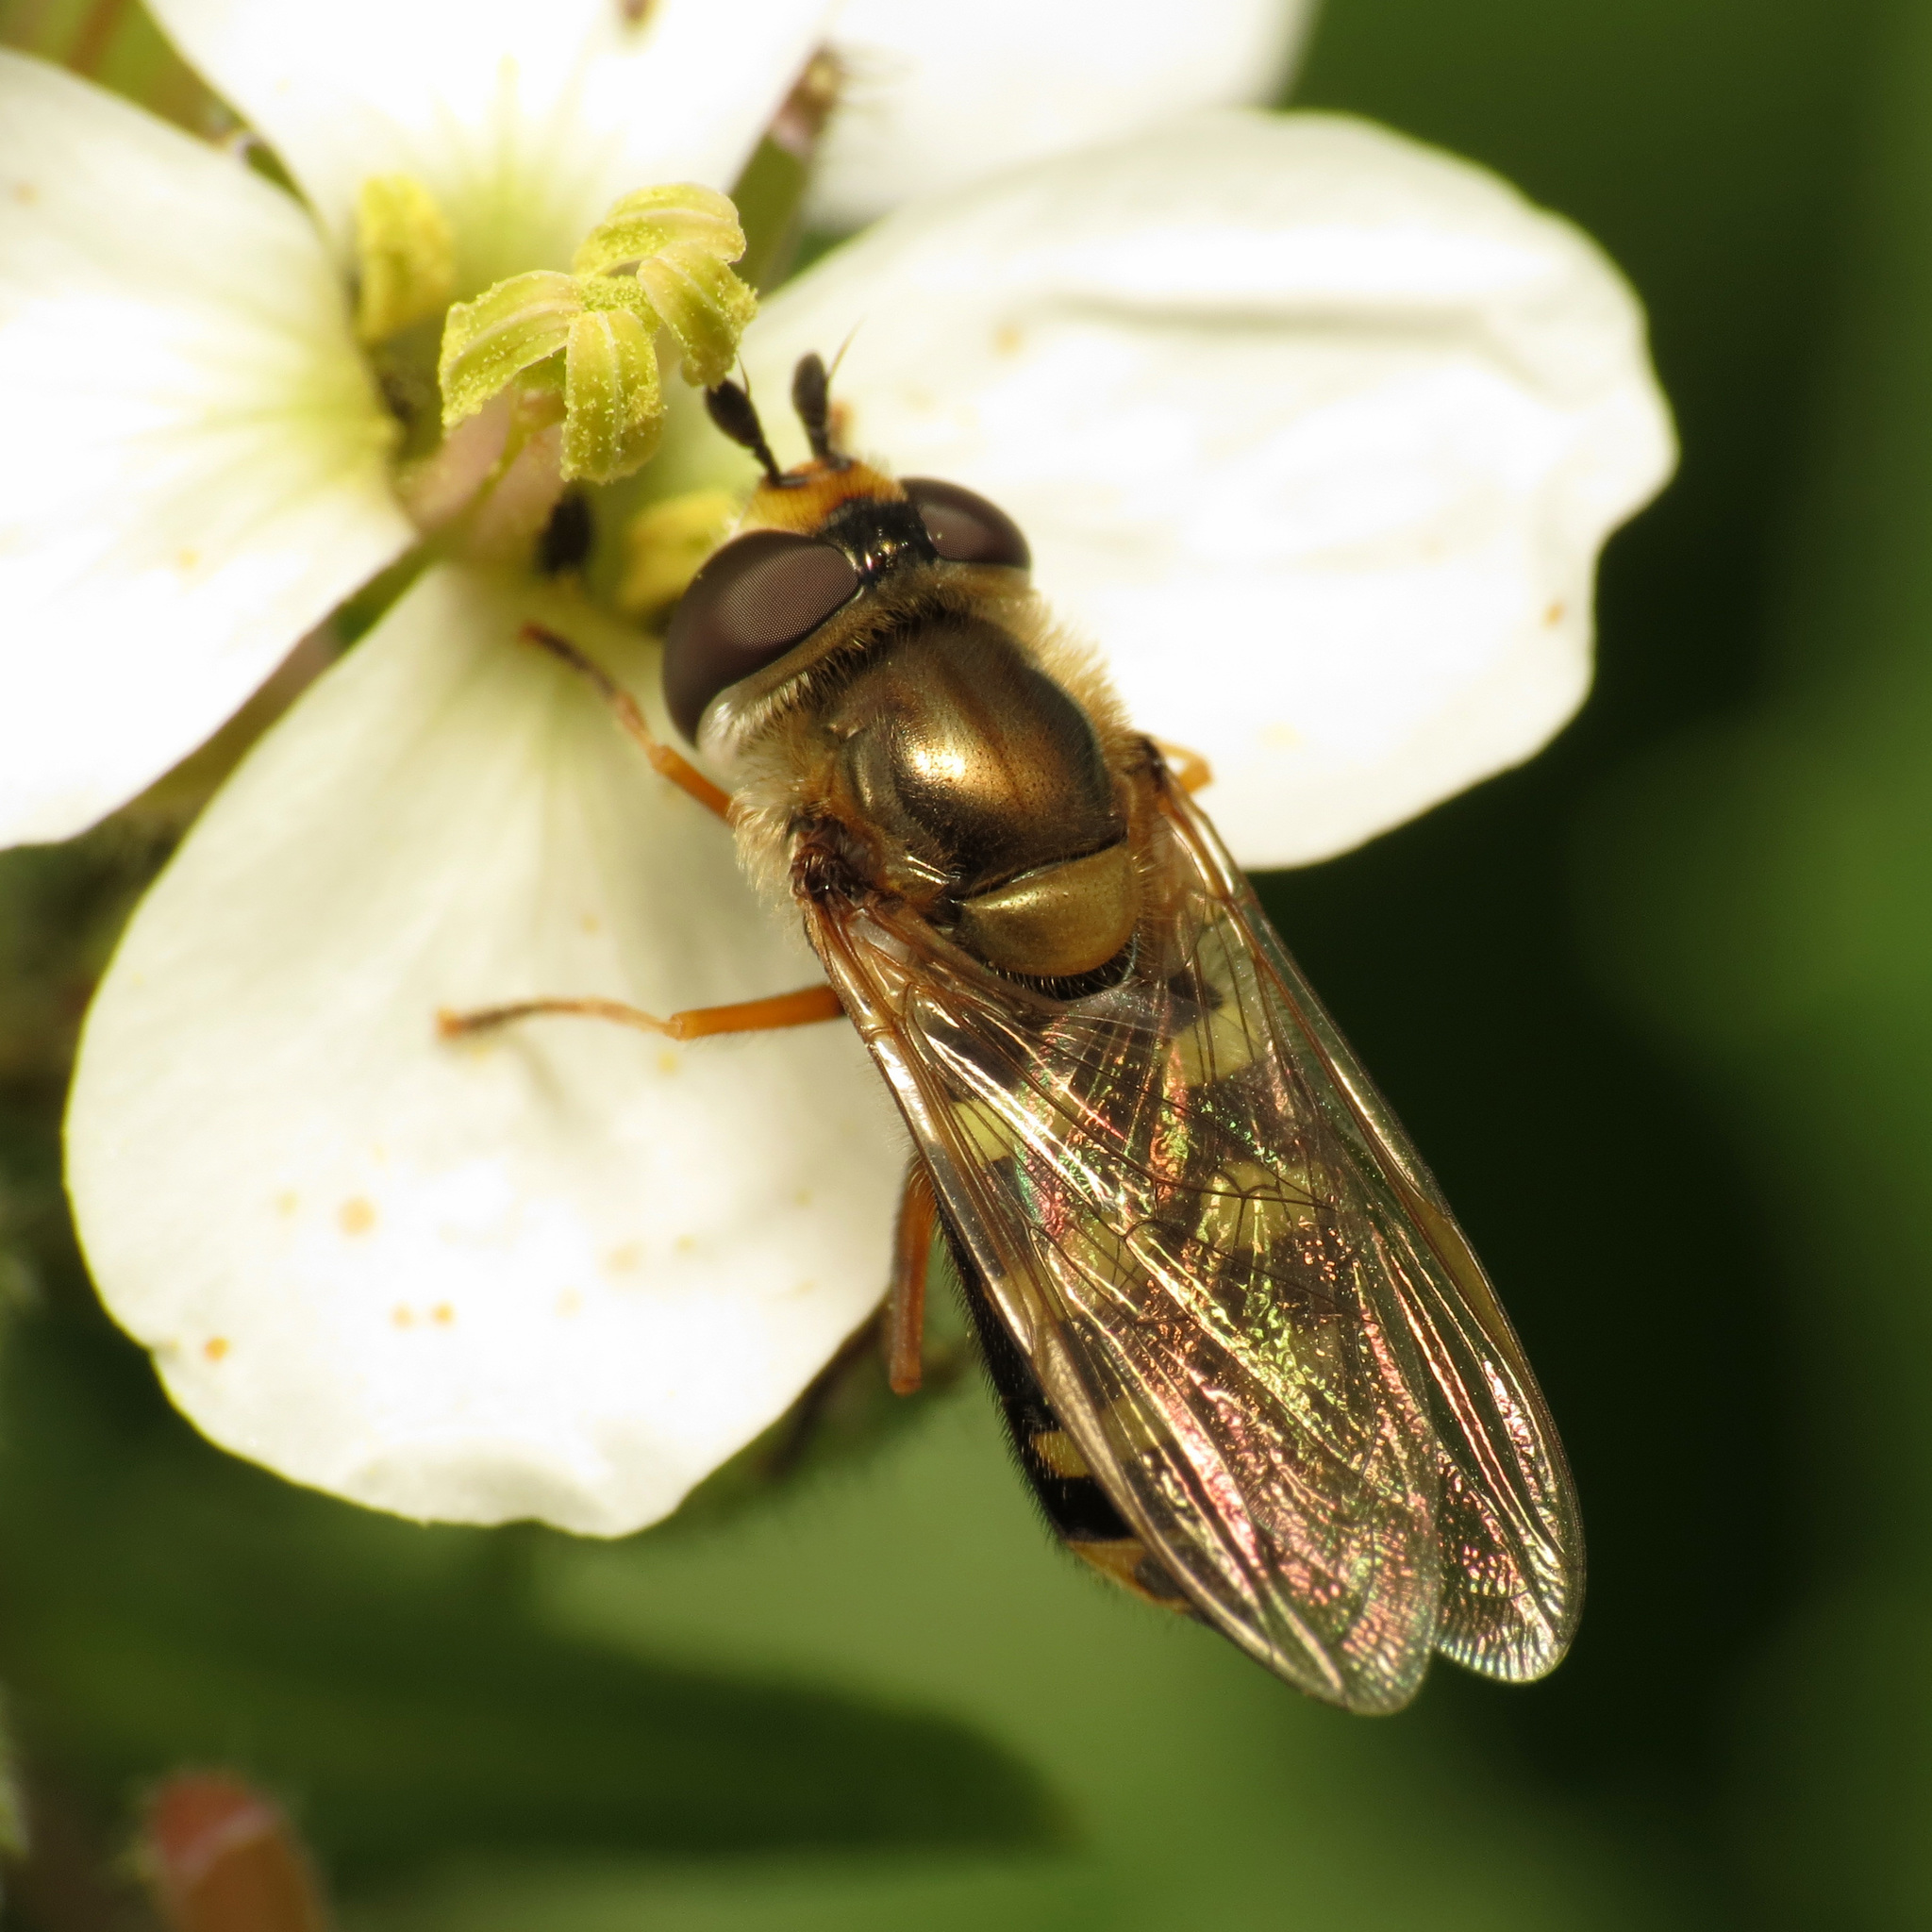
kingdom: Animalia
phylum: Arthropoda
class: Insecta
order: Diptera
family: Syrphidae
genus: Eupeodes
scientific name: Eupeodes corollae
